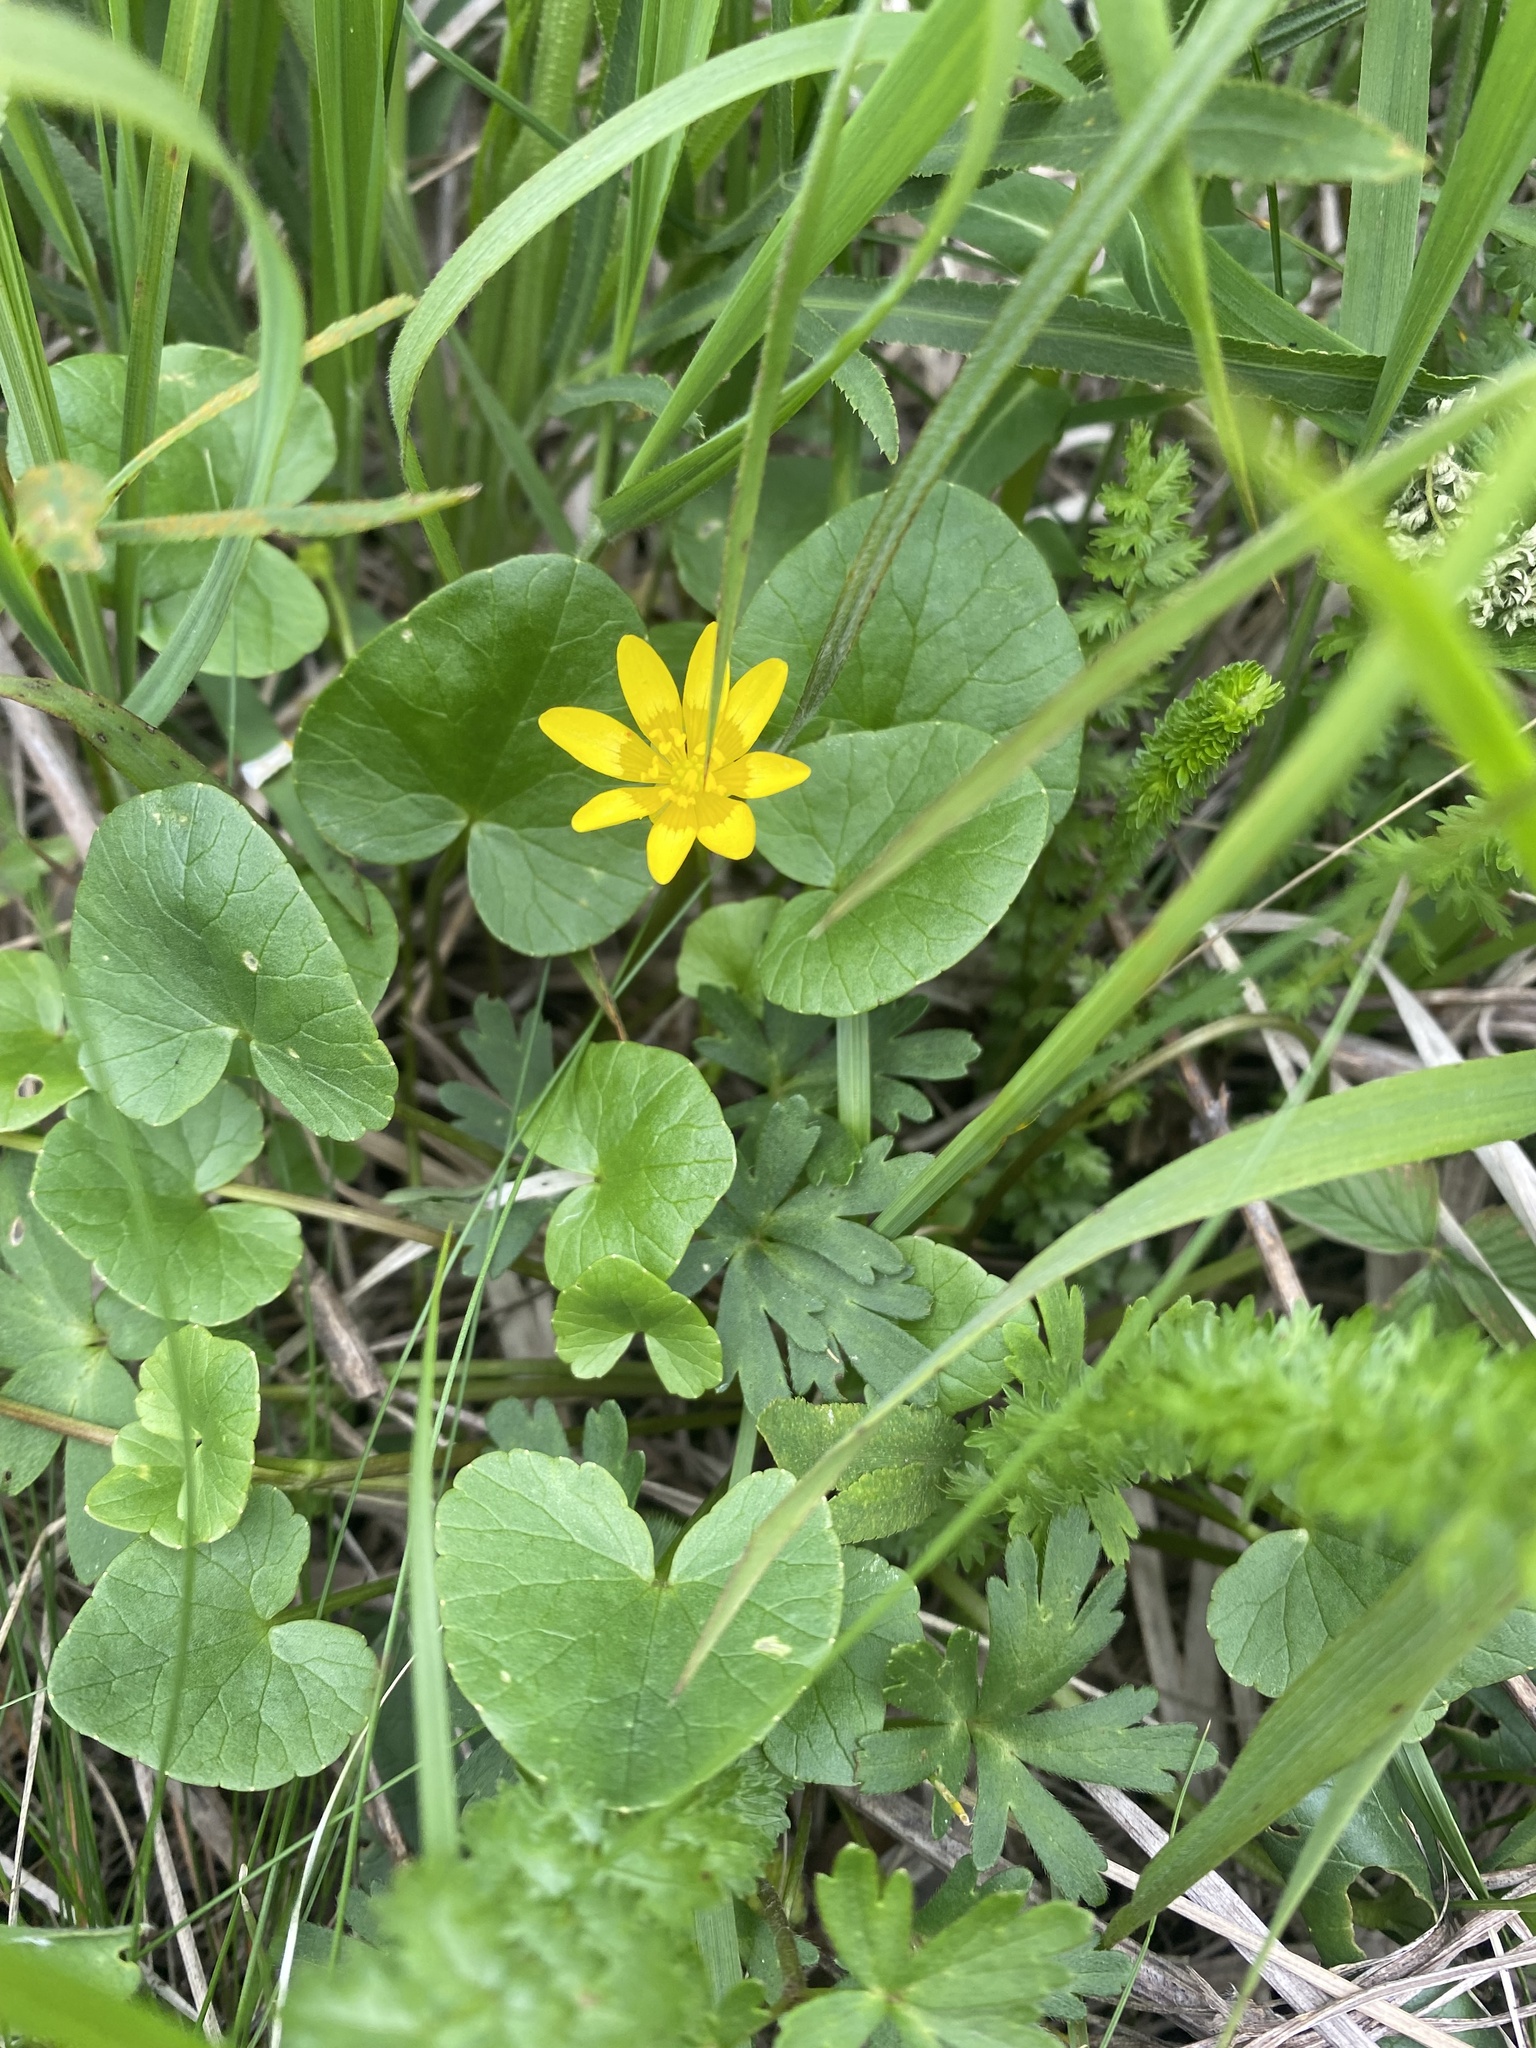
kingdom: Plantae
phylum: Tracheophyta
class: Magnoliopsida
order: Ranunculales
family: Ranunculaceae
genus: Ficaria
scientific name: Ficaria verna
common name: Lesser celandine
